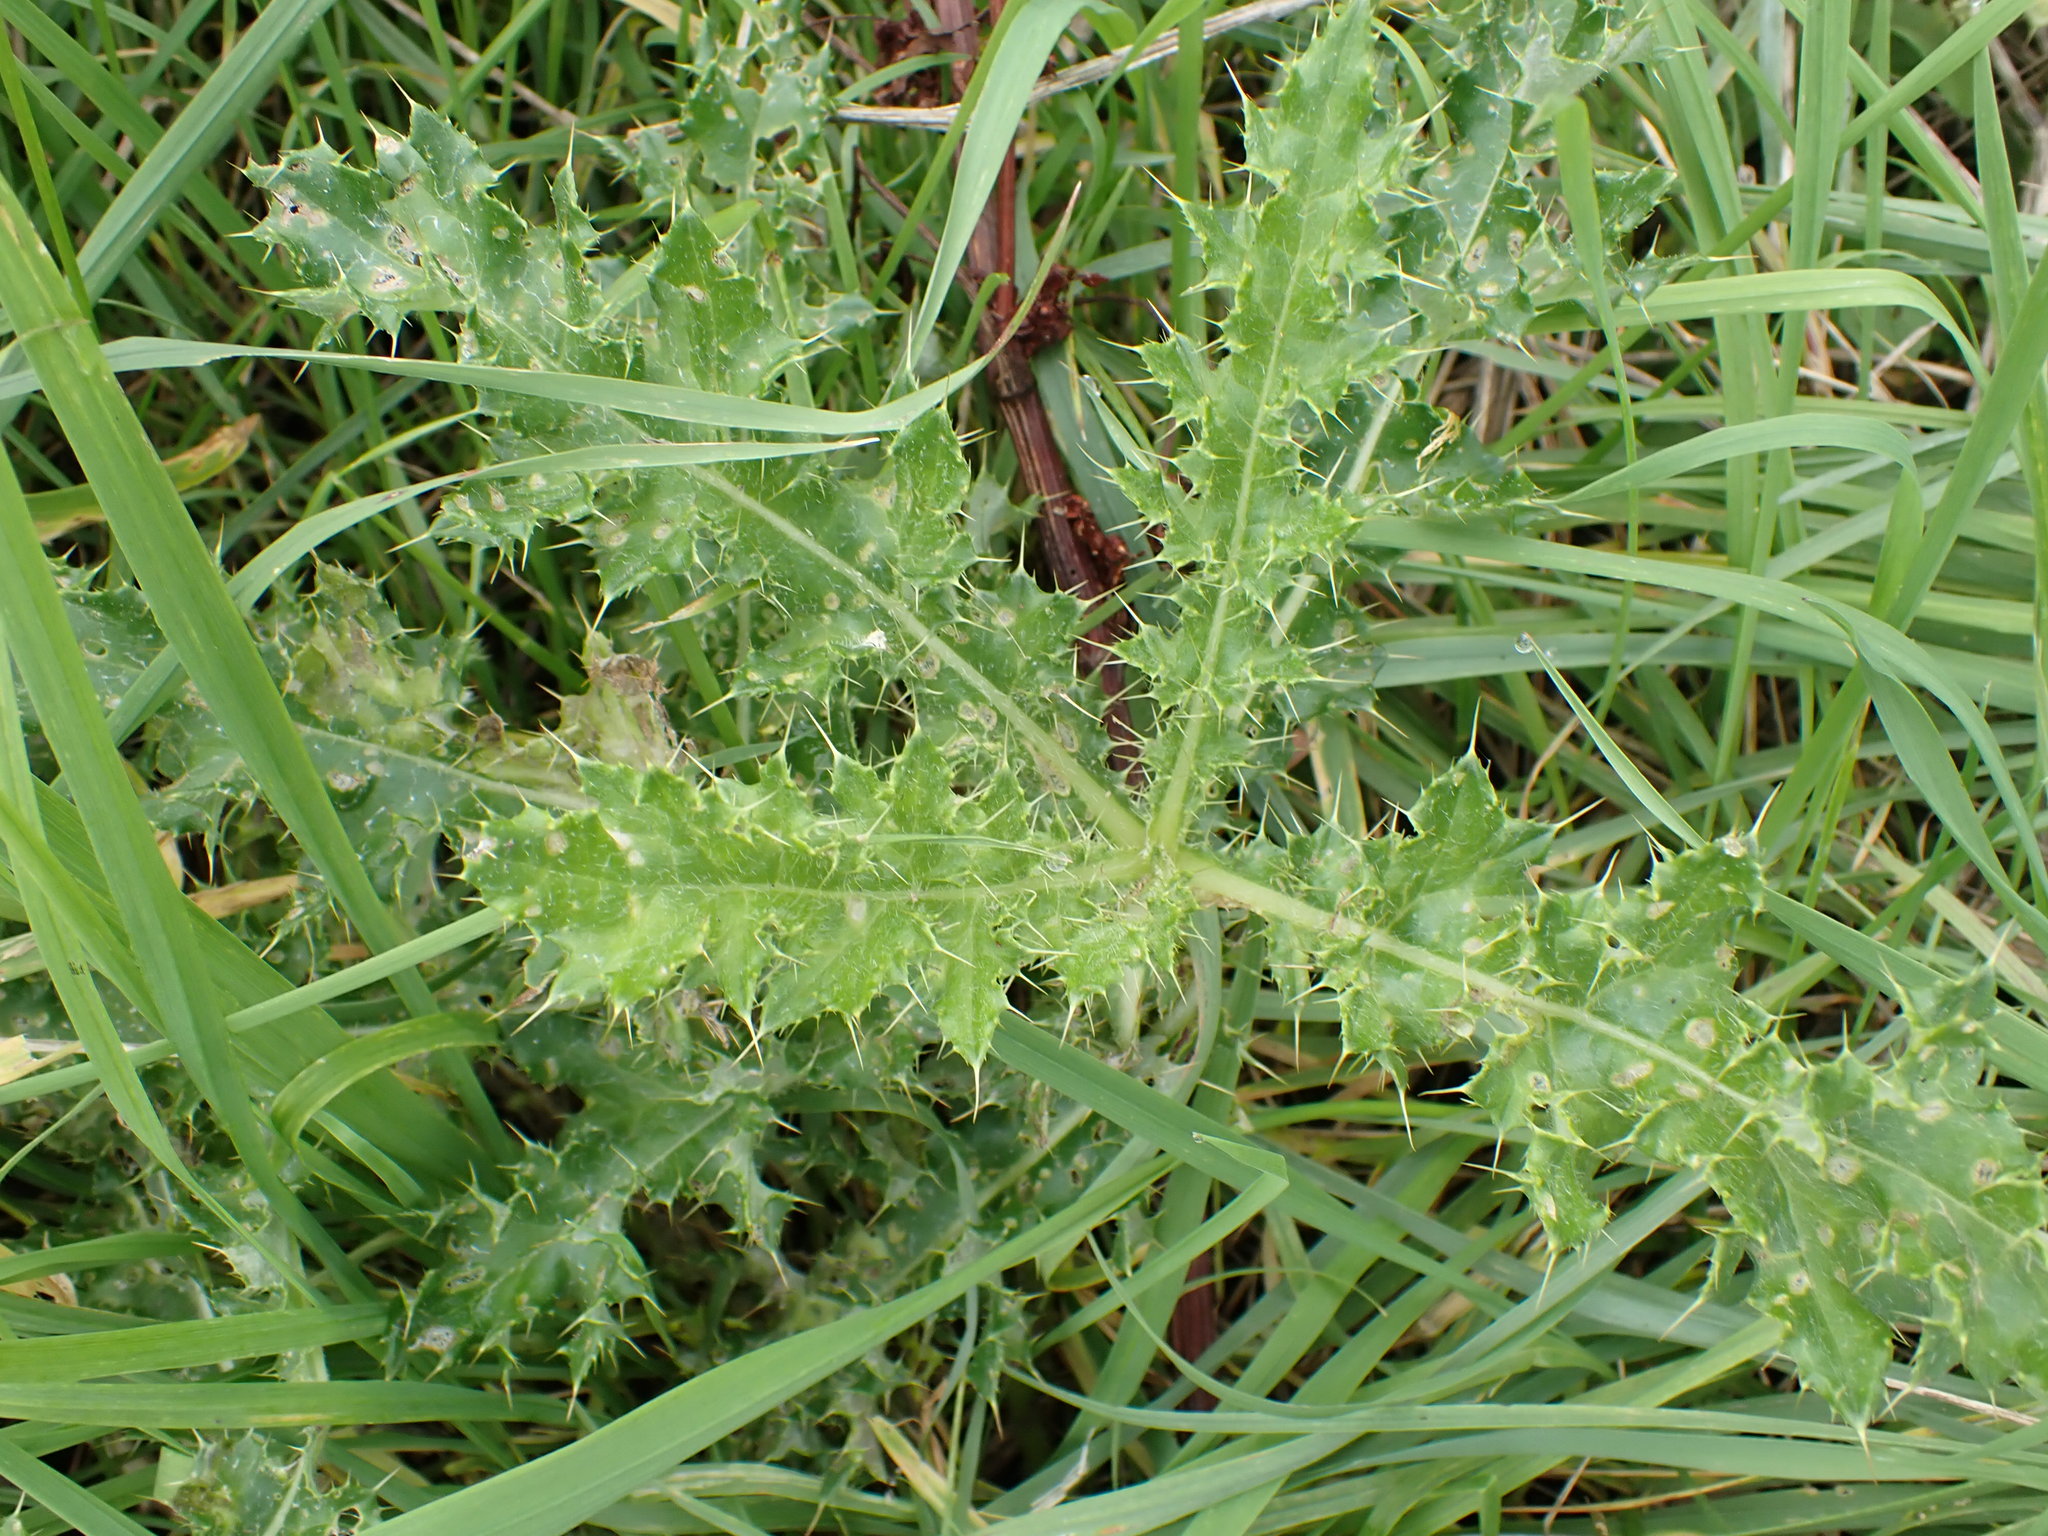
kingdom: Plantae
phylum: Tracheophyta
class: Magnoliopsida
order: Asterales
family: Asteraceae
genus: Cirsium
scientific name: Cirsium arvense
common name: Creeping thistle
